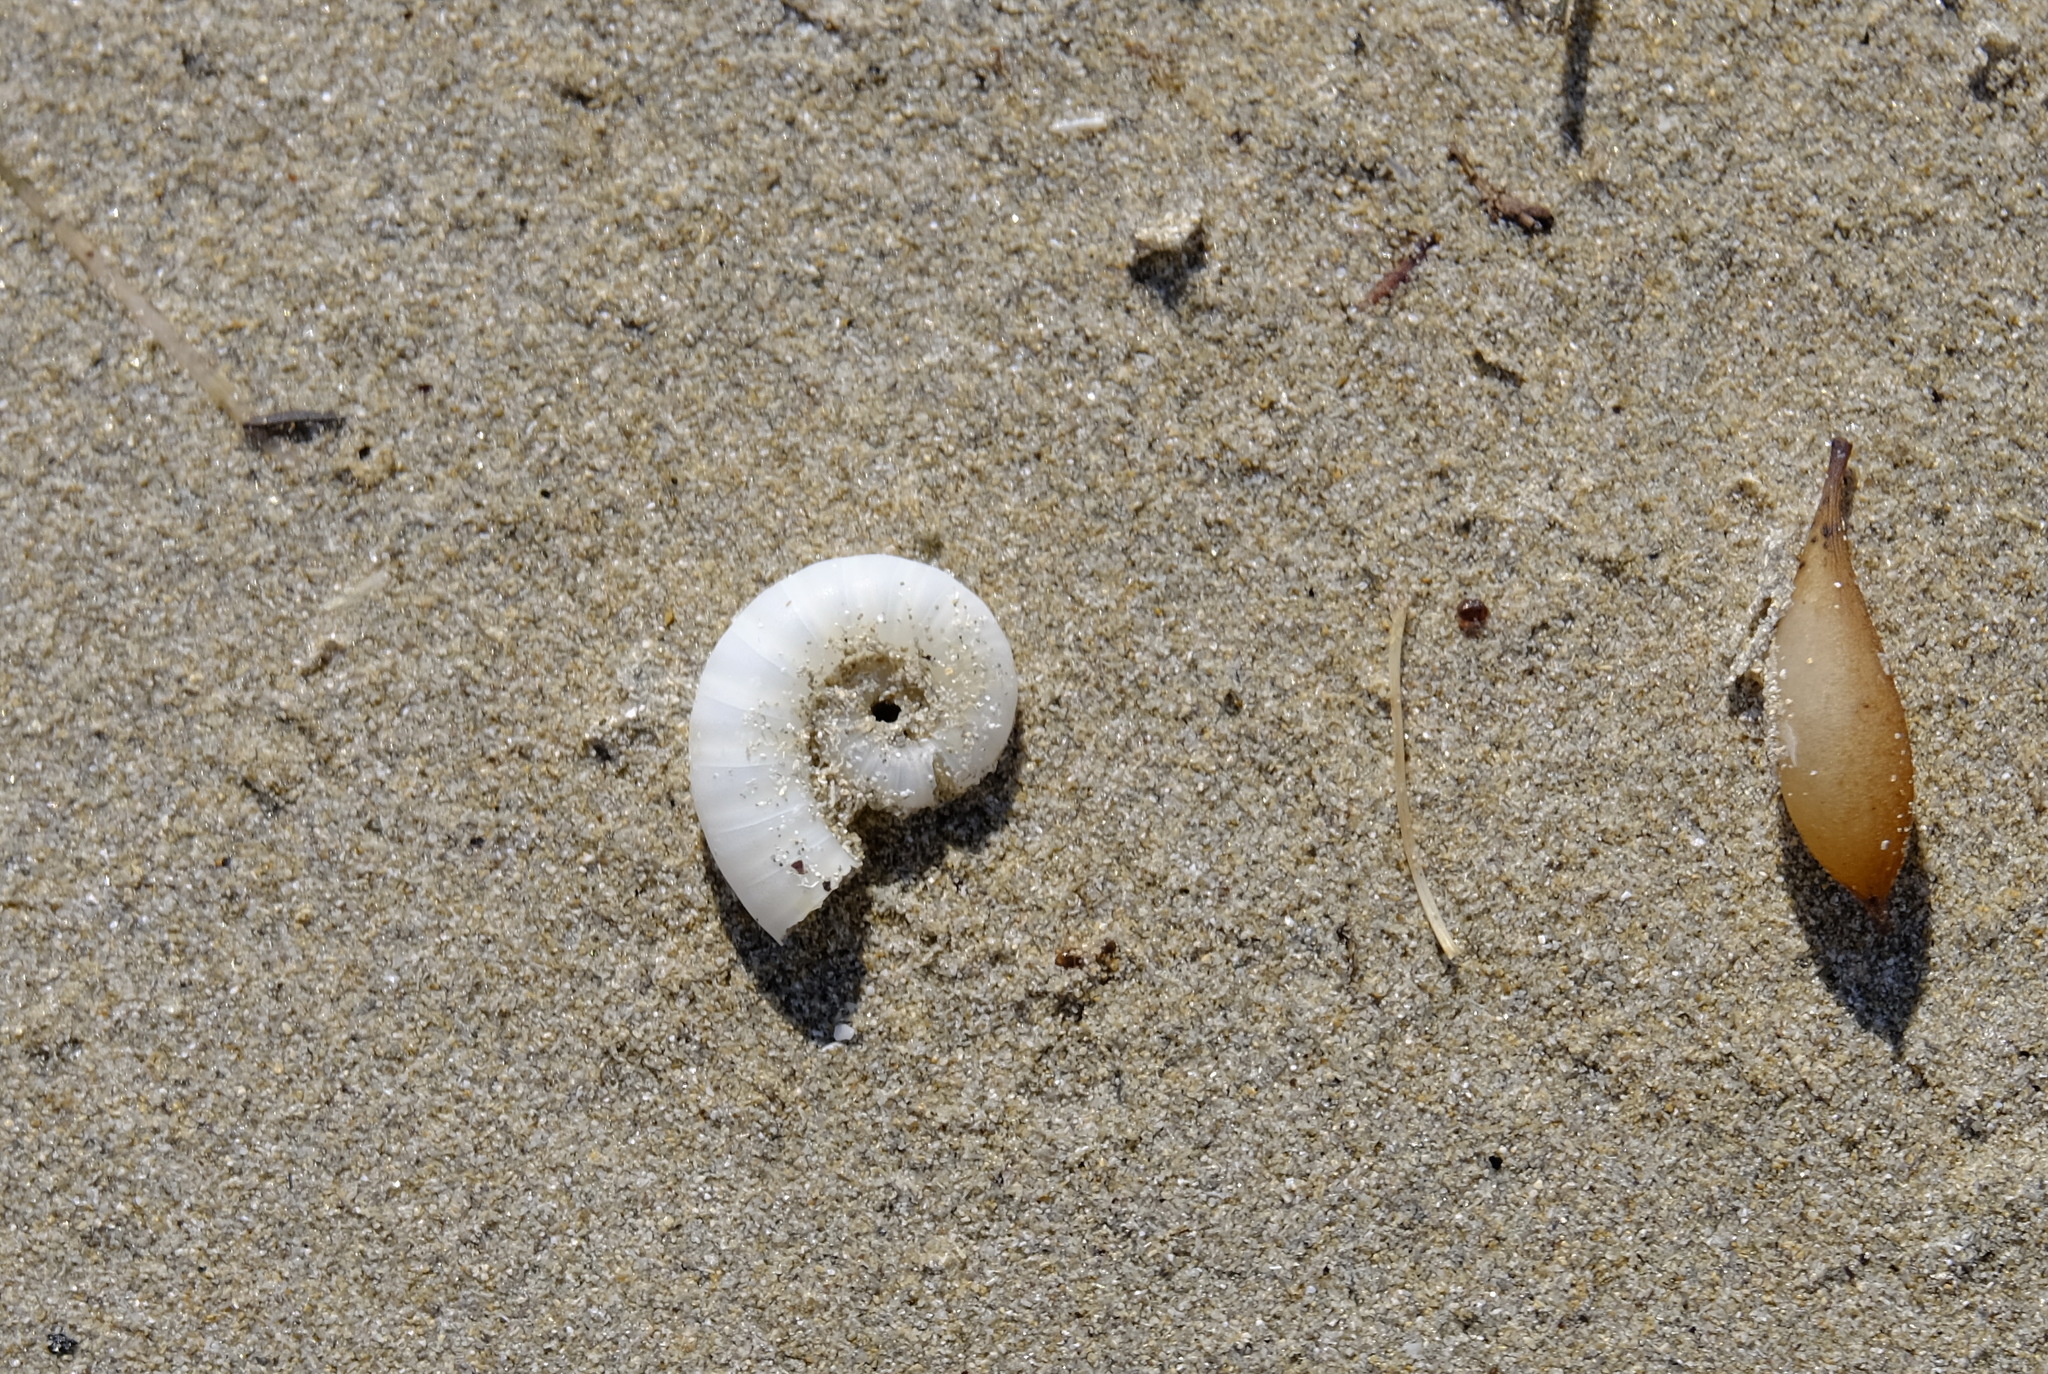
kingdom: Animalia
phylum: Mollusca
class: Cephalopoda
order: Spirulida
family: Spirulidae
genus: Spirula
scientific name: Spirula spirula
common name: Ram's horn squid
